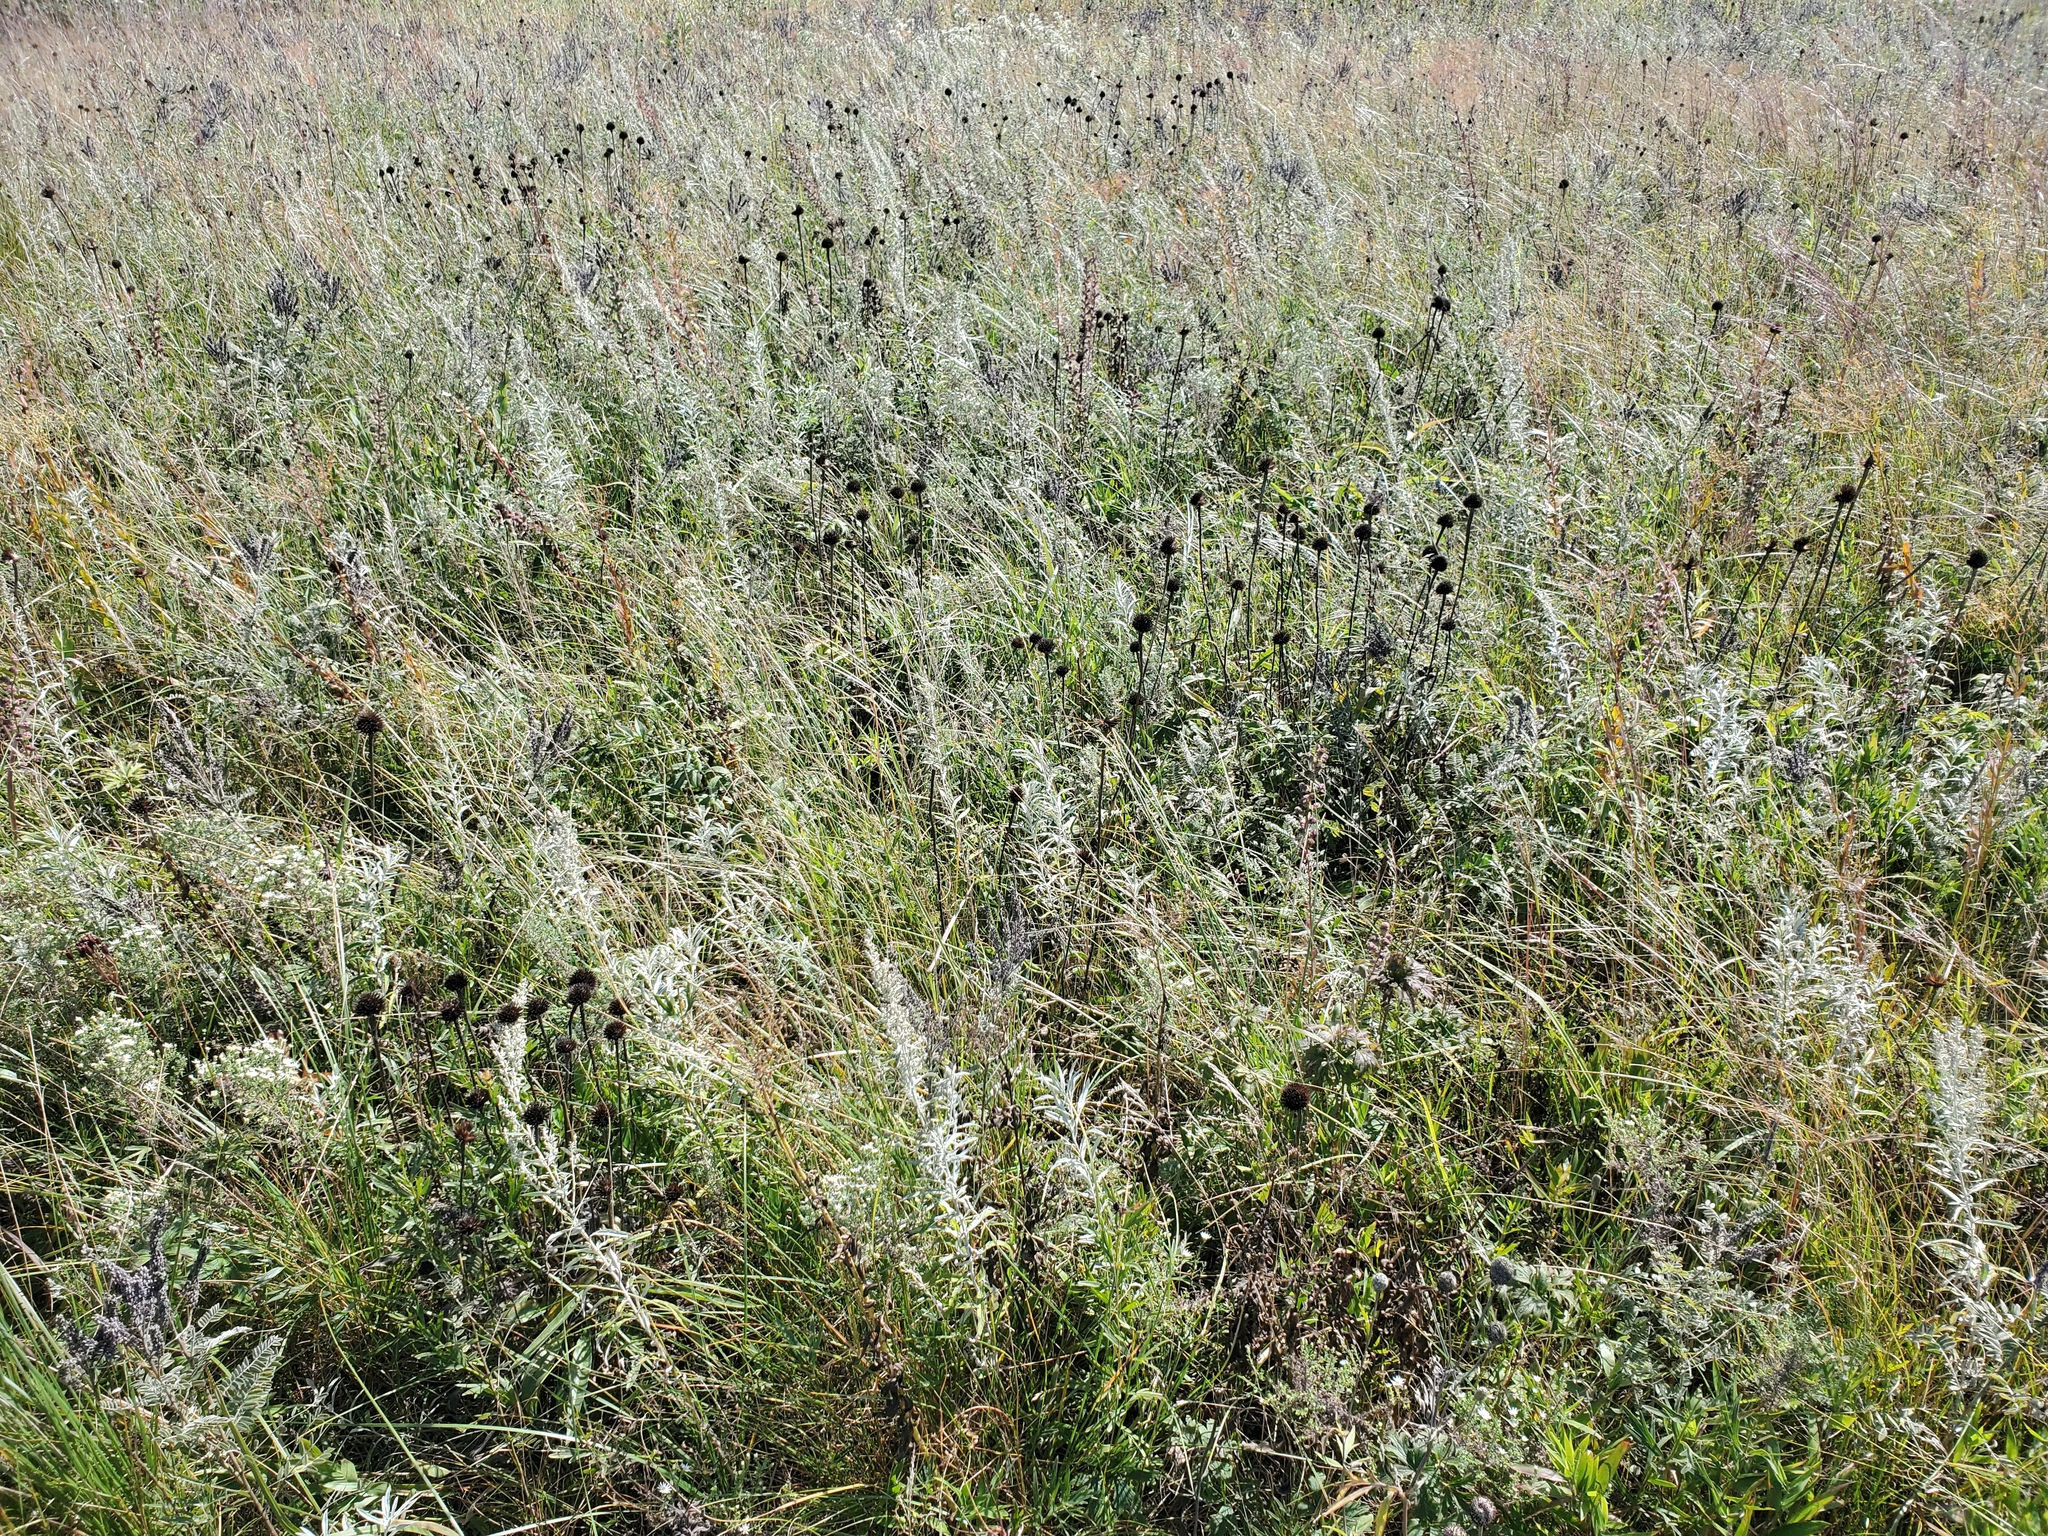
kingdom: Plantae
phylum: Tracheophyta
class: Magnoliopsida
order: Asterales
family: Asteraceae
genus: Artemisia
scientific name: Artemisia ludoviciana
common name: Western mugwort
